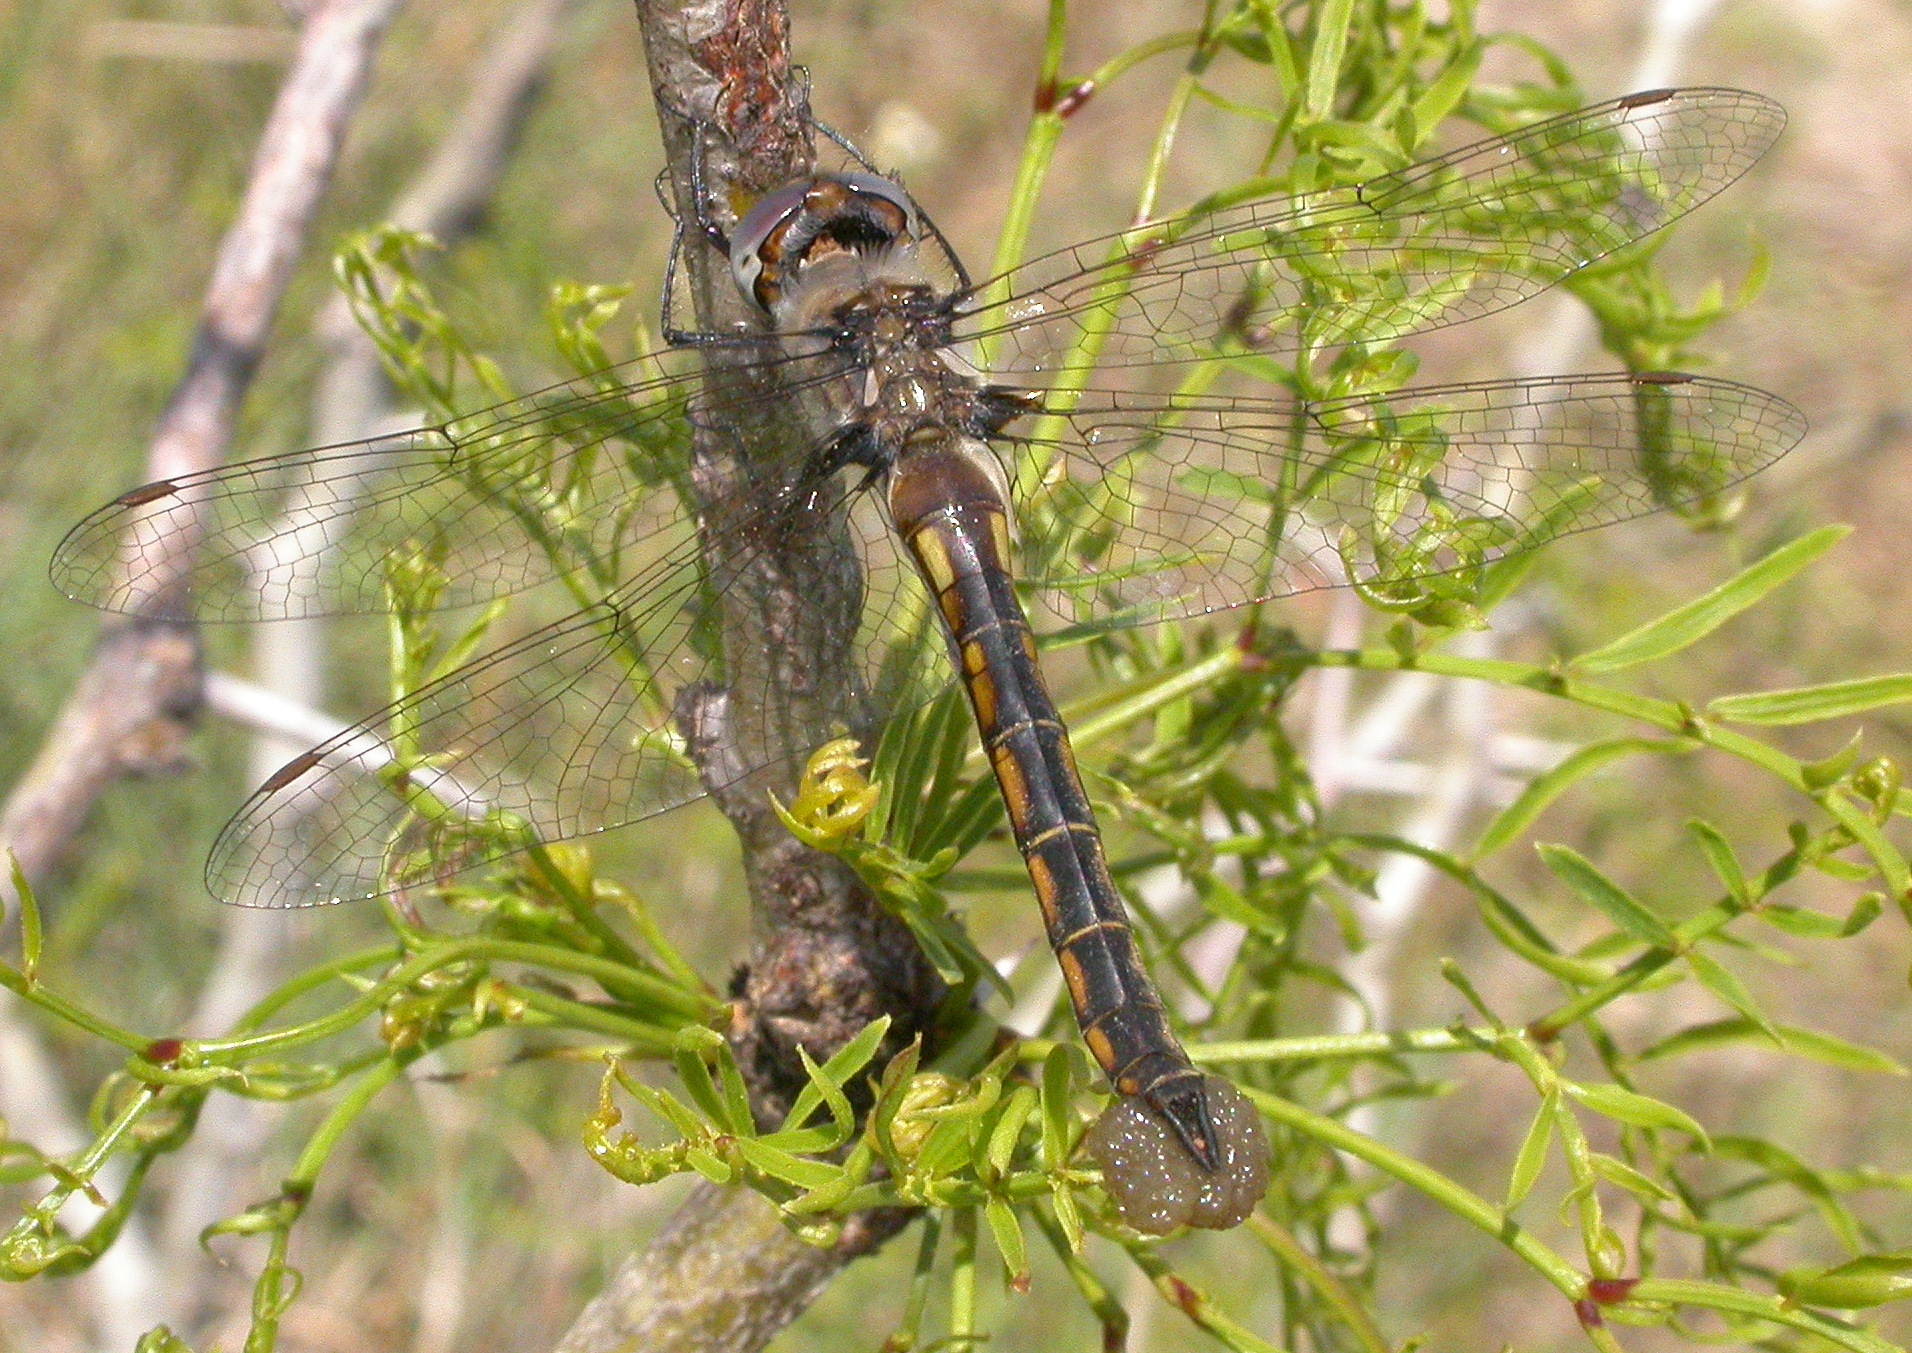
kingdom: Animalia
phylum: Arthropoda
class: Insecta
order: Odonata
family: Corduliidae
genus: Epitheca
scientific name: Epitheca costalis
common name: Slender baskettail
